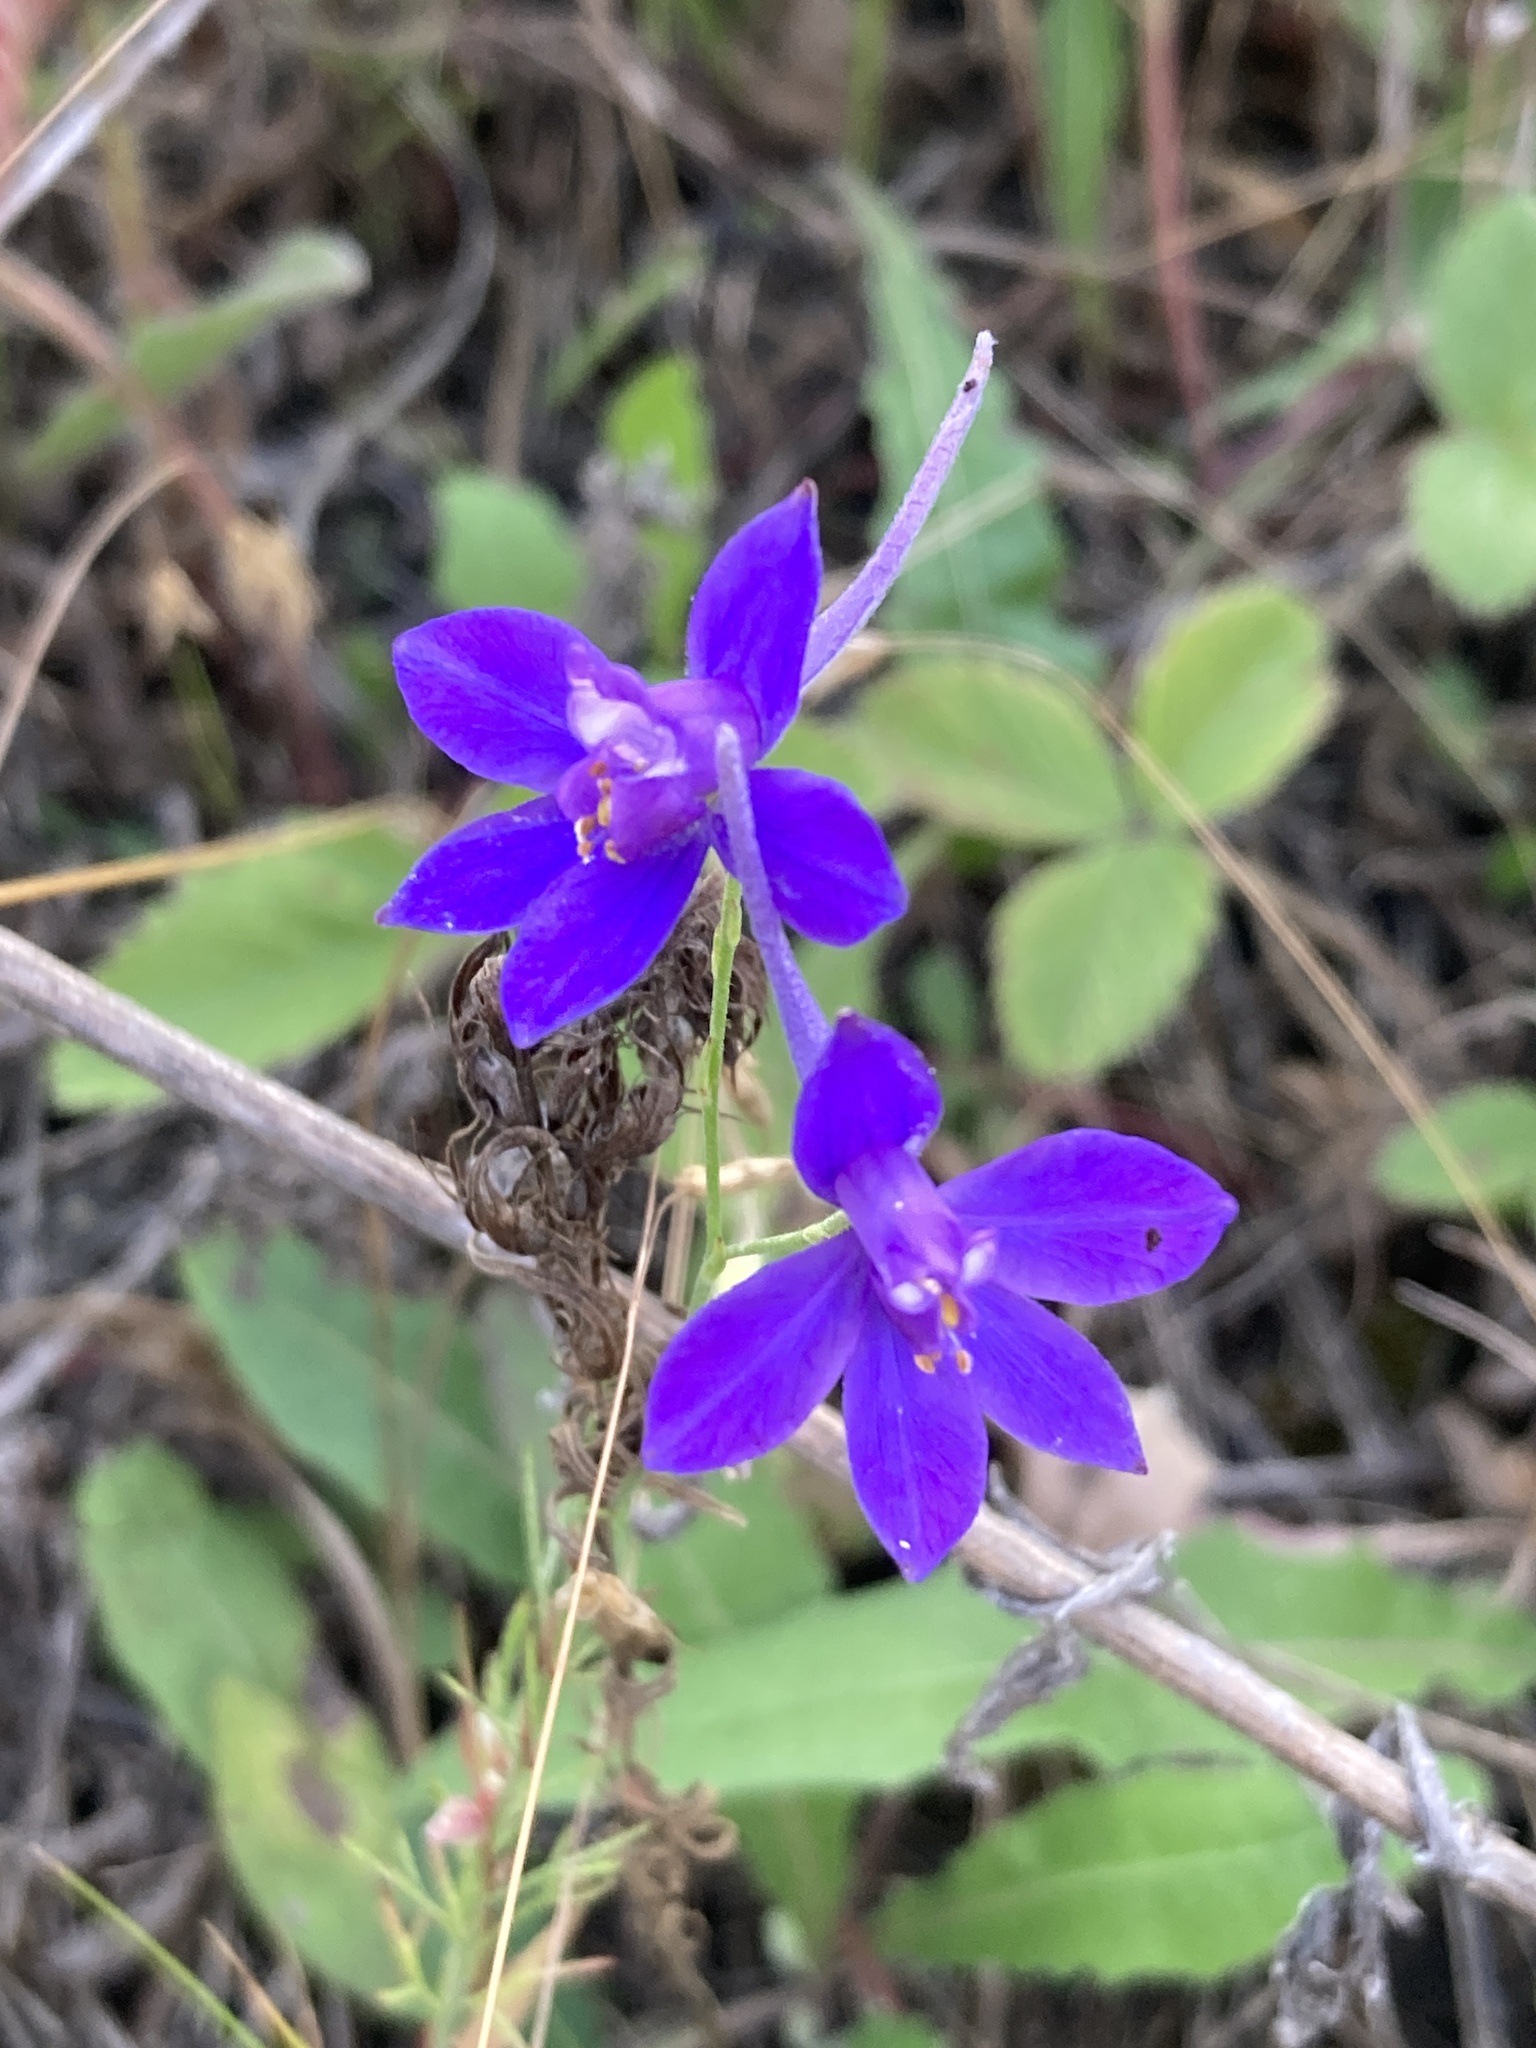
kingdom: Plantae
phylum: Tracheophyta
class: Magnoliopsida
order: Ranunculales
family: Ranunculaceae
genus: Delphinium
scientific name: Delphinium consolida
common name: Branching larkspur
